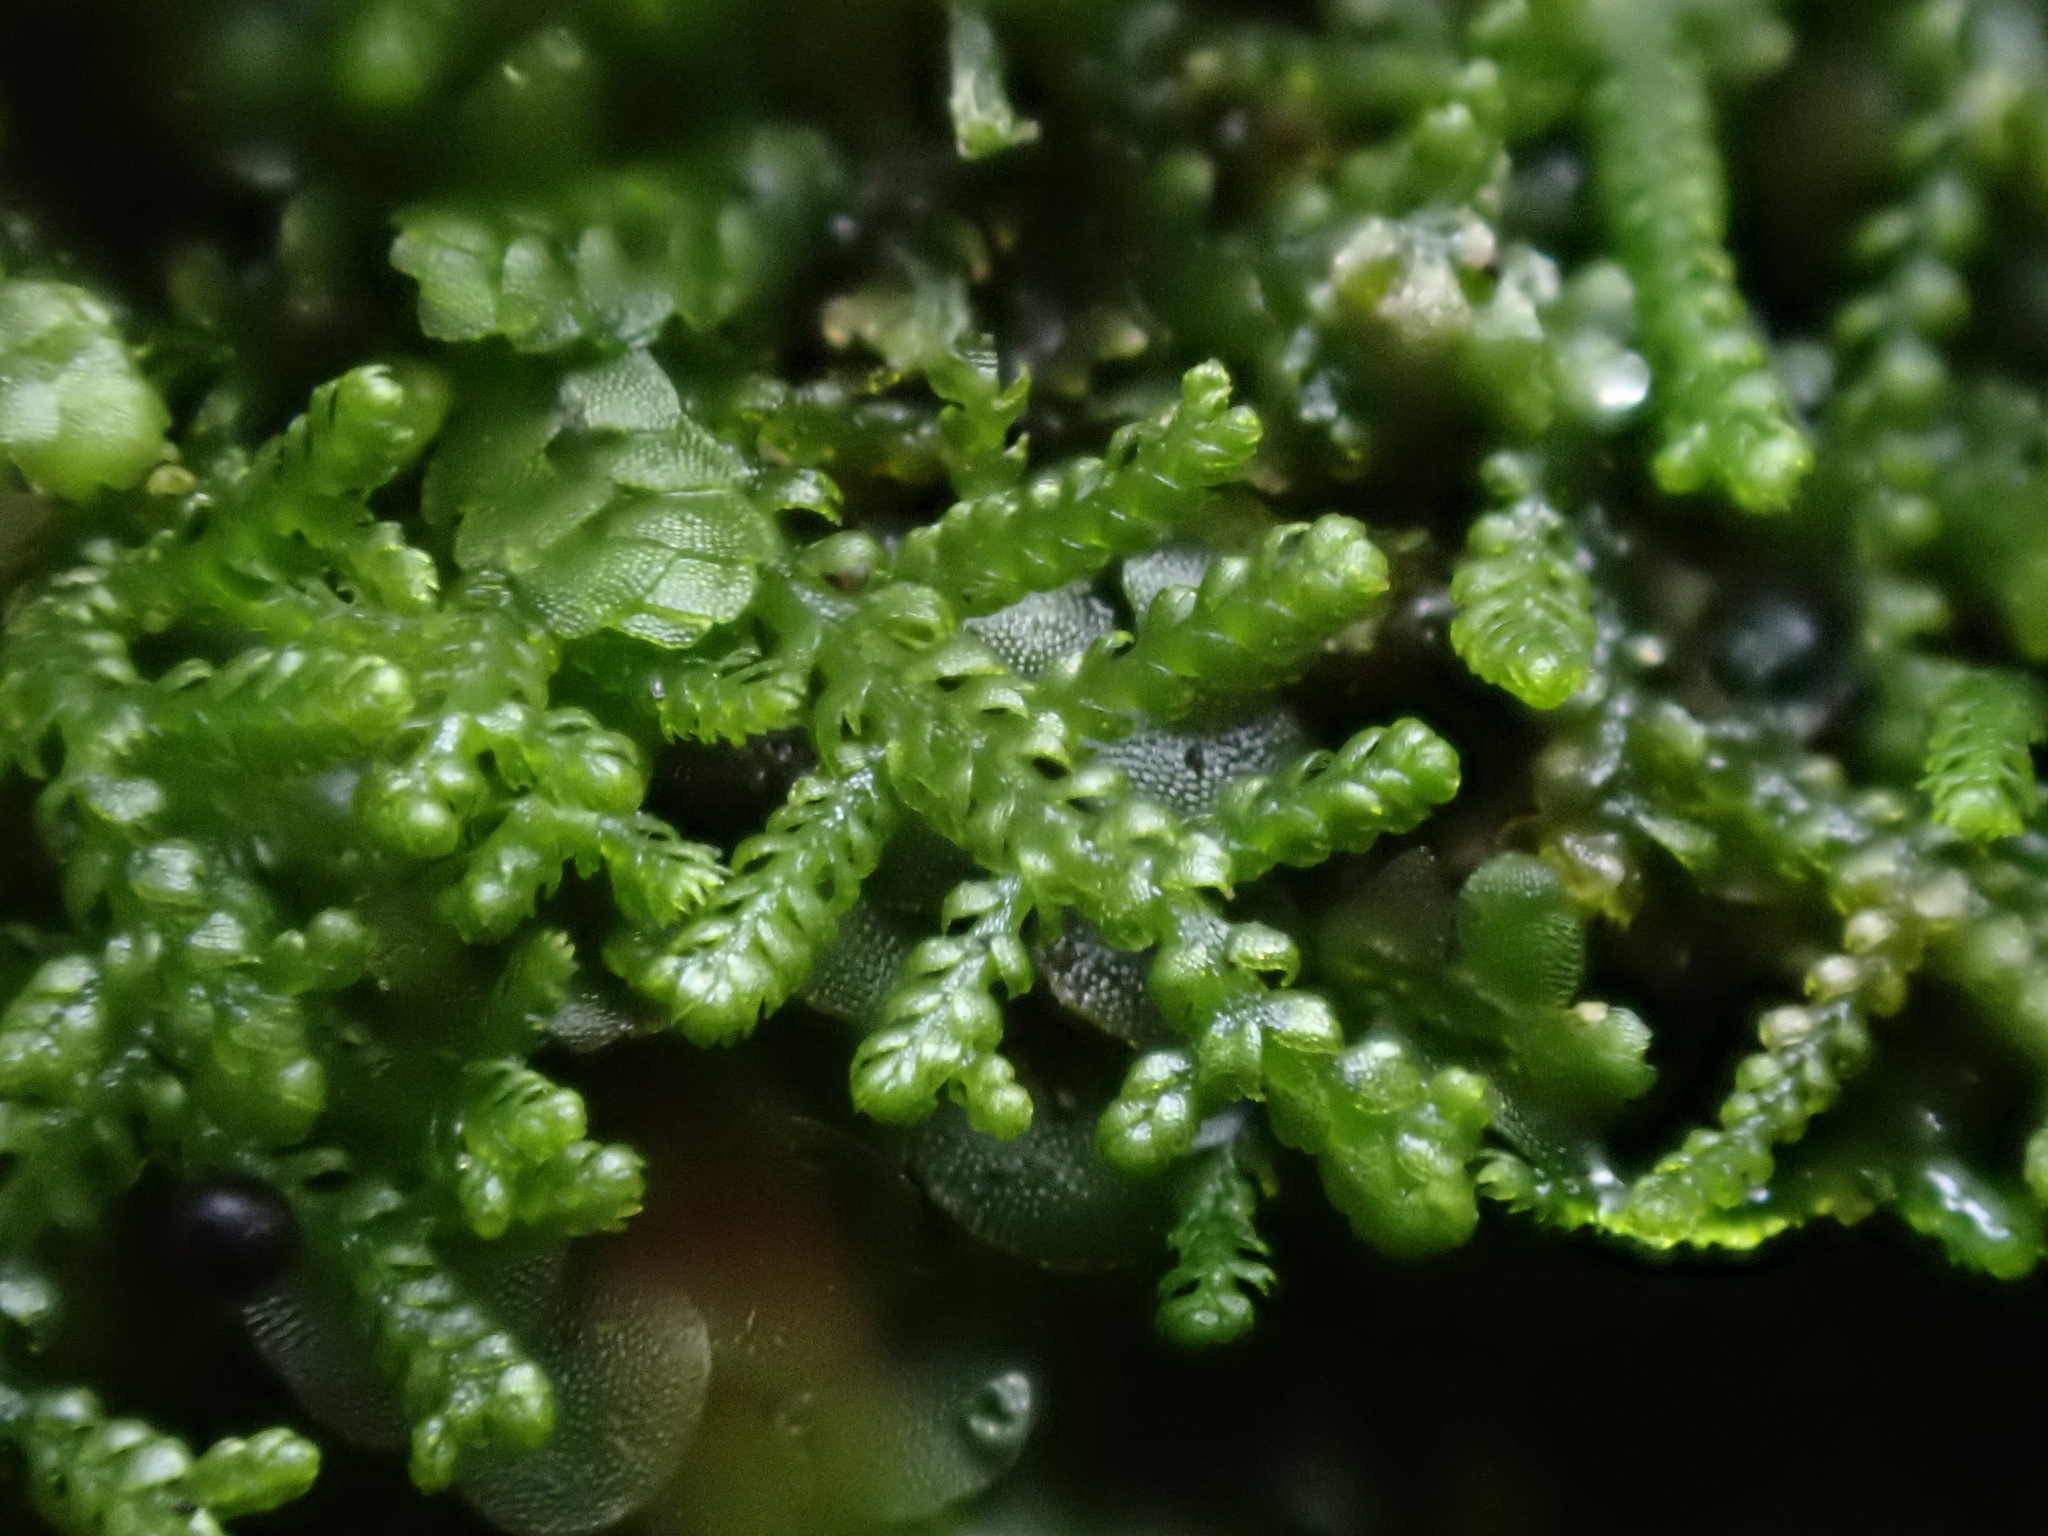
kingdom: Plantae
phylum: Marchantiophyta
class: Jungermanniopsida
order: Jungermanniales
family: Lepidoziaceae
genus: Lepidozia
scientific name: Lepidozia reptans
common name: Creeping fingerwort
